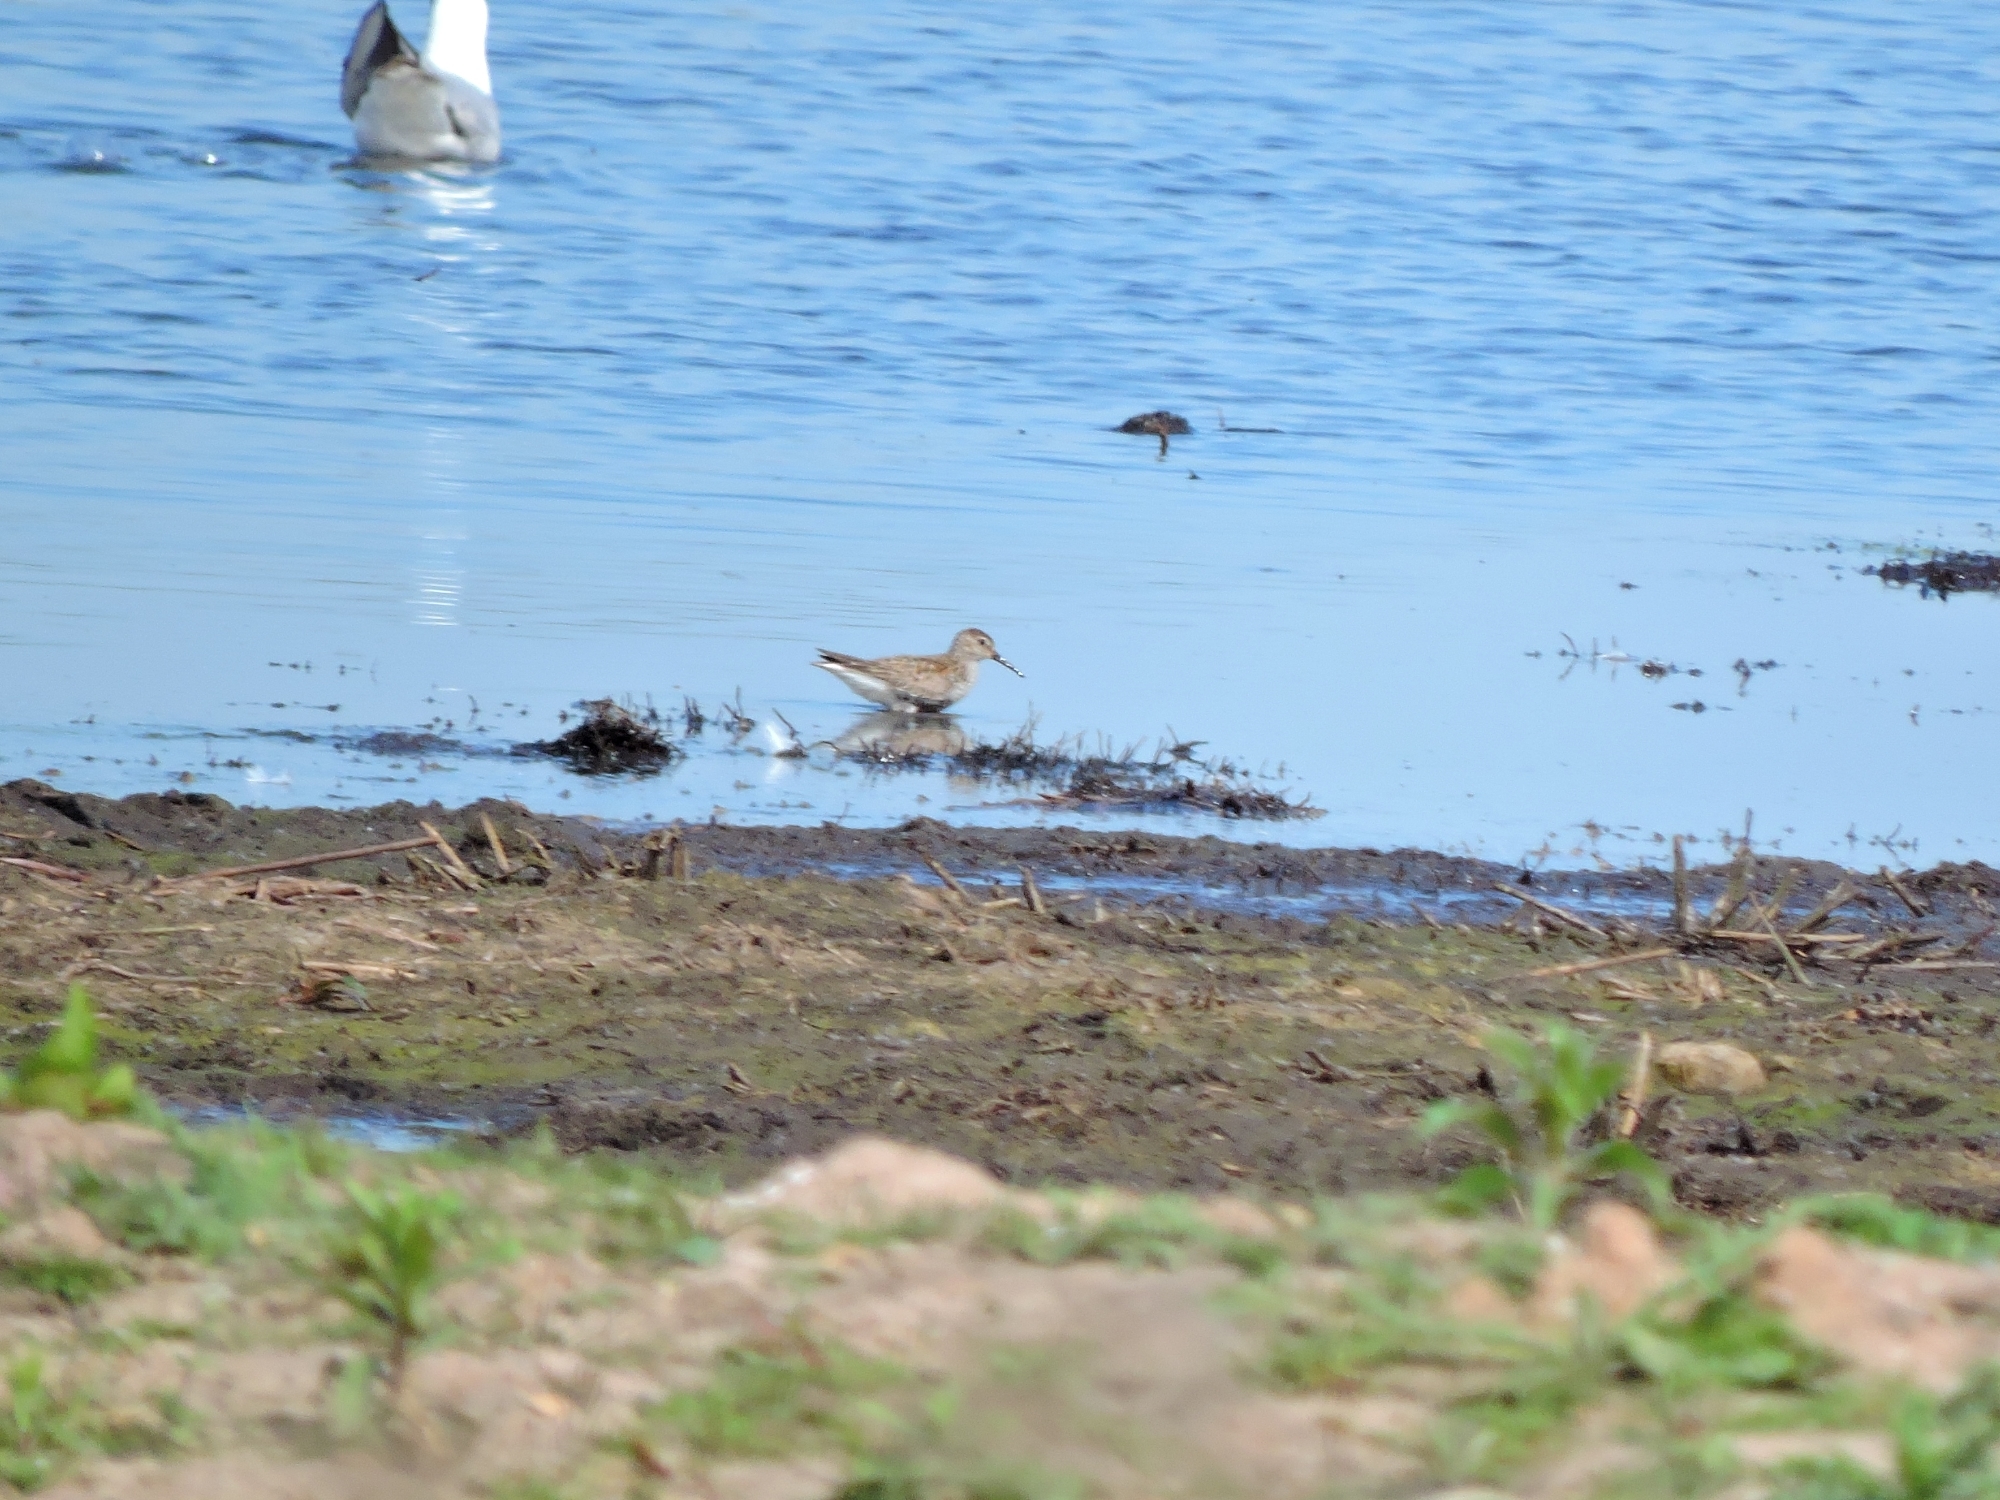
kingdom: Animalia
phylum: Chordata
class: Aves
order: Charadriiformes
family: Scolopacidae
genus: Calidris
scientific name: Calidris alpina
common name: Dunlin
